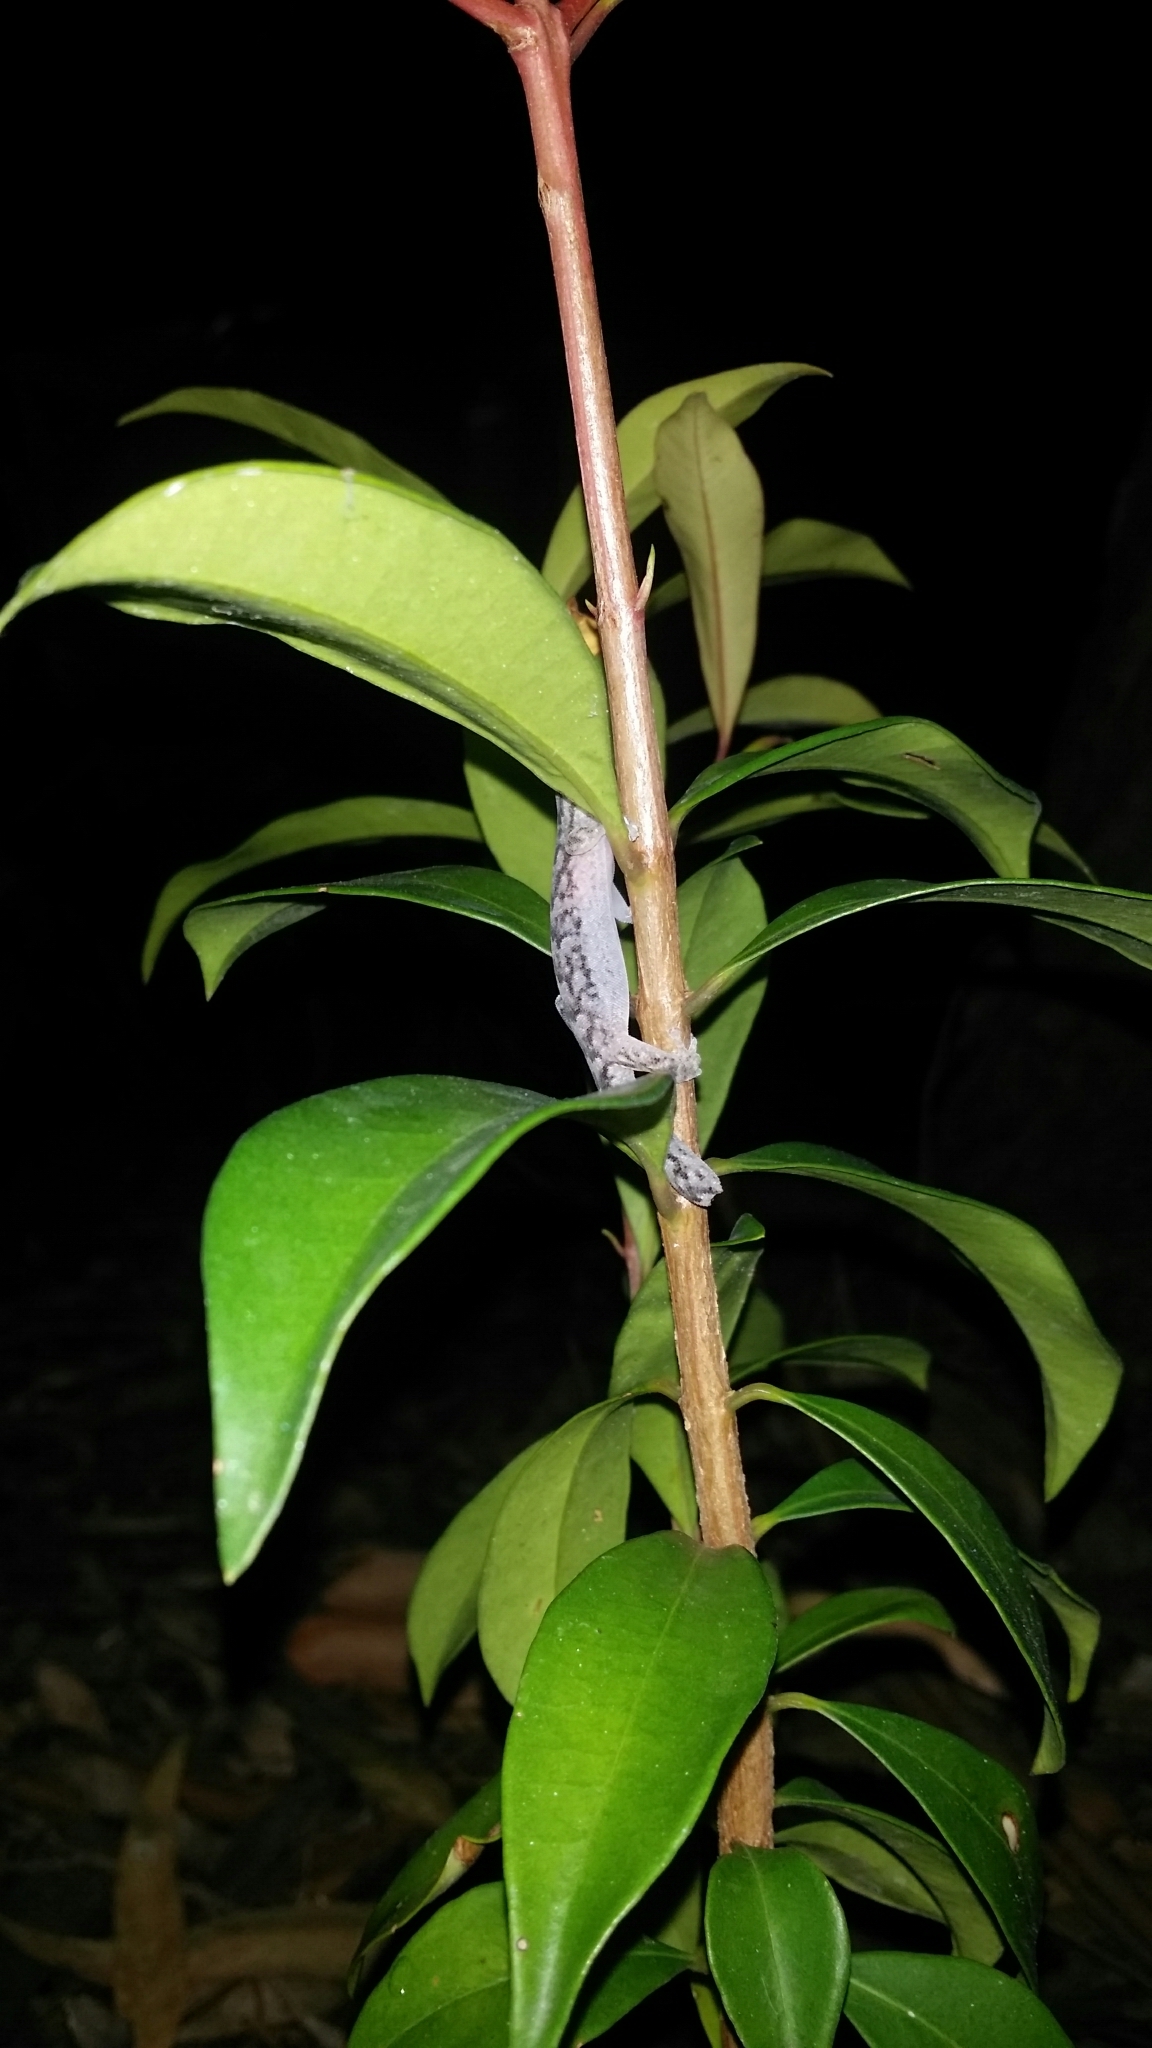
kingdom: Animalia
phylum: Chordata
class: Squamata
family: Gekkonidae
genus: Christinus
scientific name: Christinus marmoratus
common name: Marbled gecko
